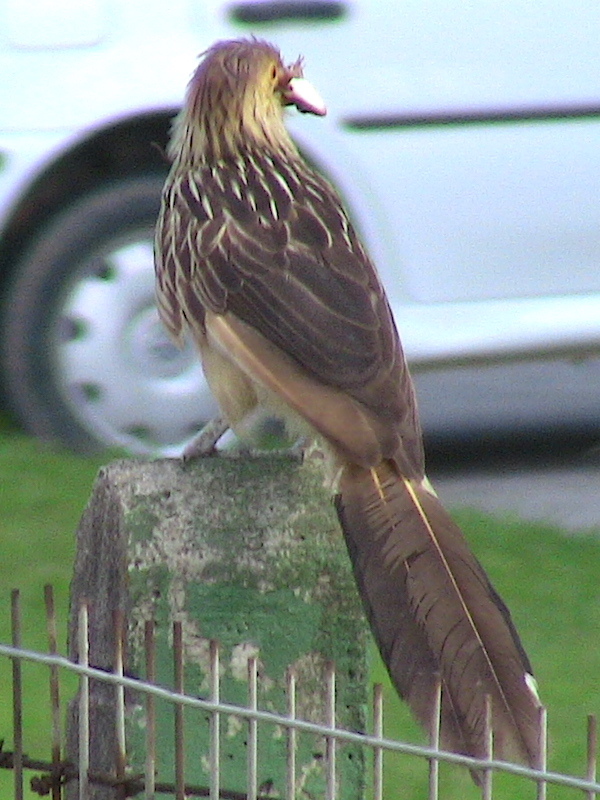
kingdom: Animalia
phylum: Chordata
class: Aves
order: Cuculiformes
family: Cuculidae
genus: Guira
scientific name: Guira guira
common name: Guira cuckoo
